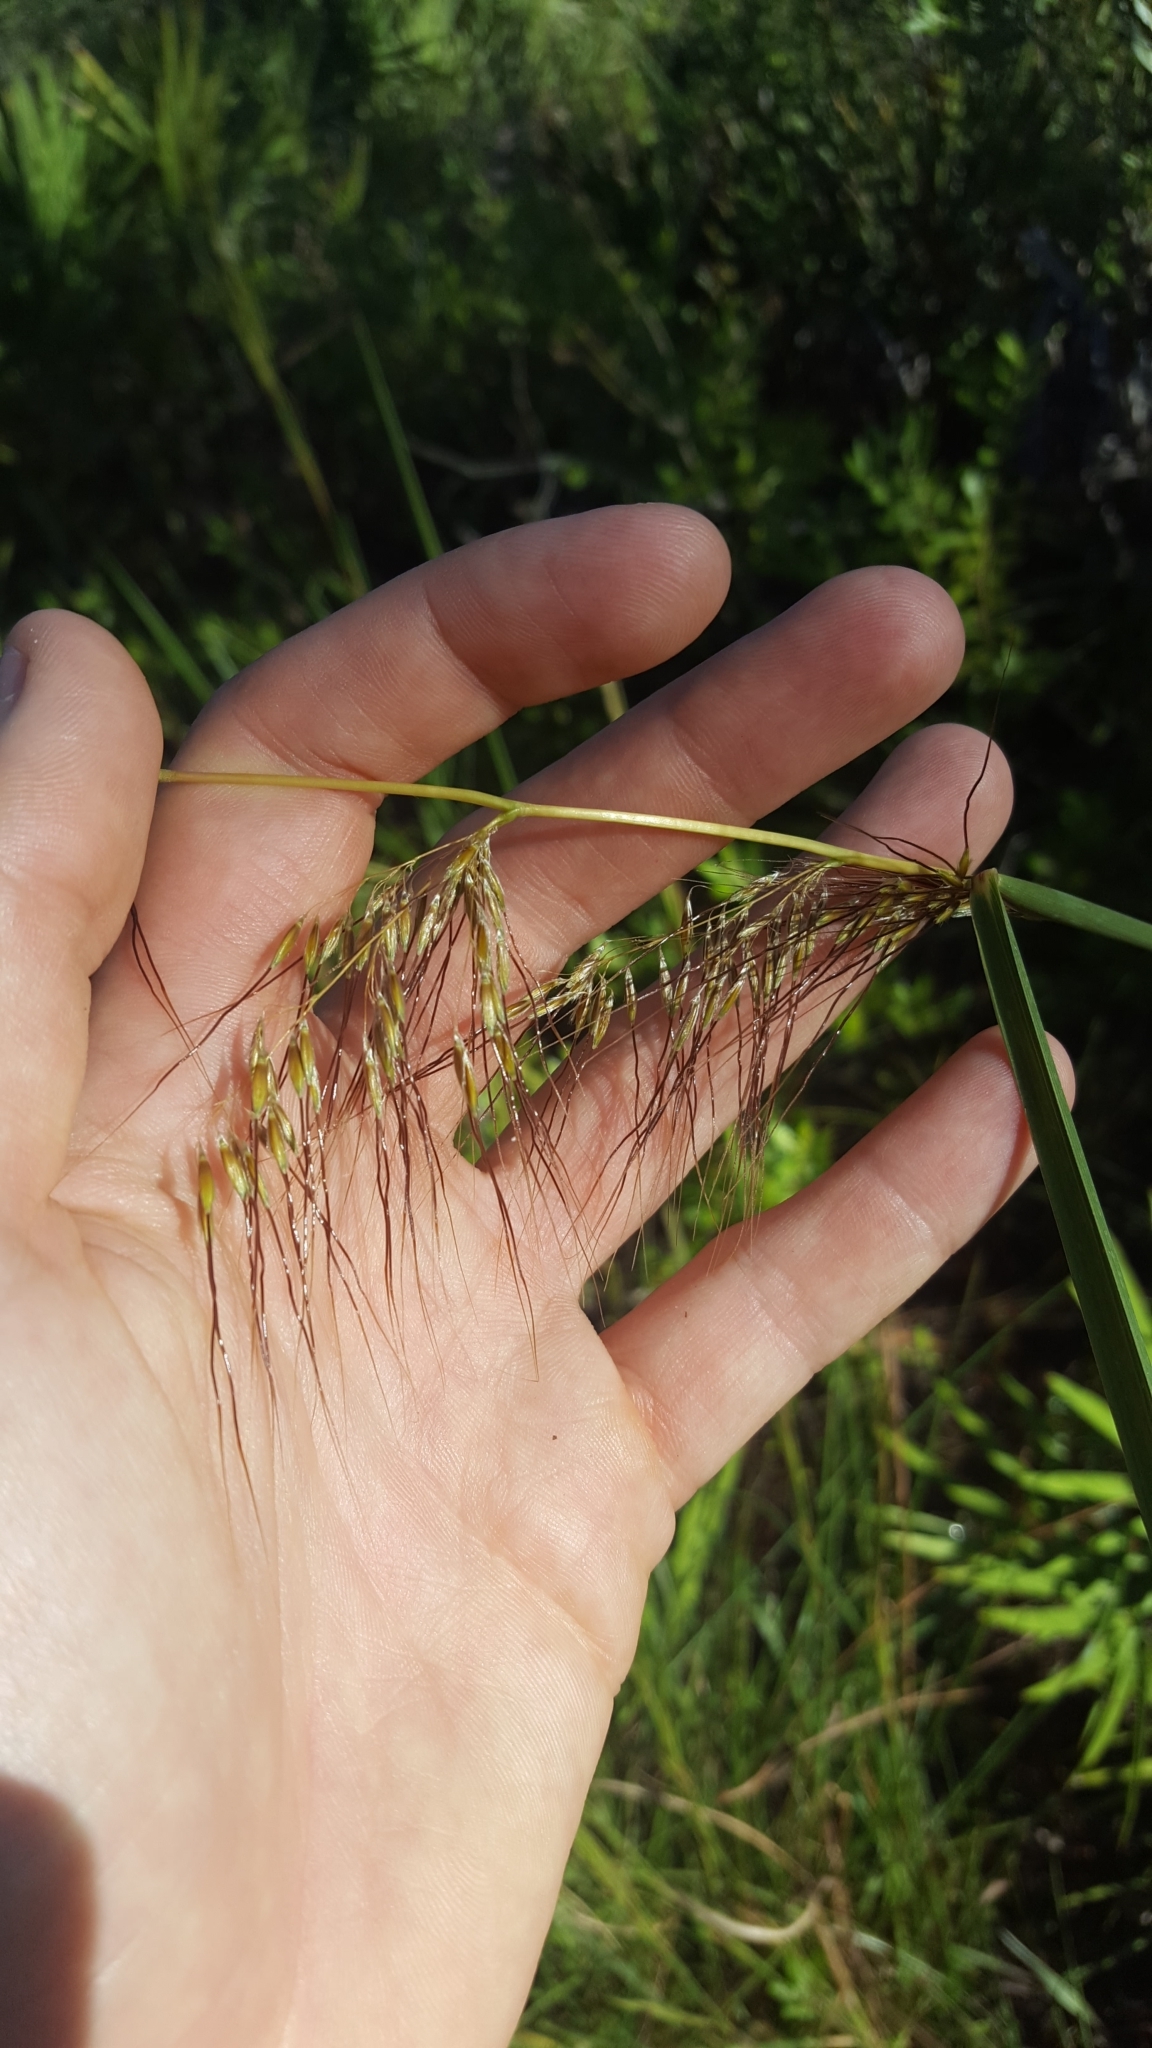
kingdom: Plantae
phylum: Tracheophyta
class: Liliopsida
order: Poales
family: Poaceae
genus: Sorghastrum
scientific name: Sorghastrum secundum
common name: Lopsided indian grass
